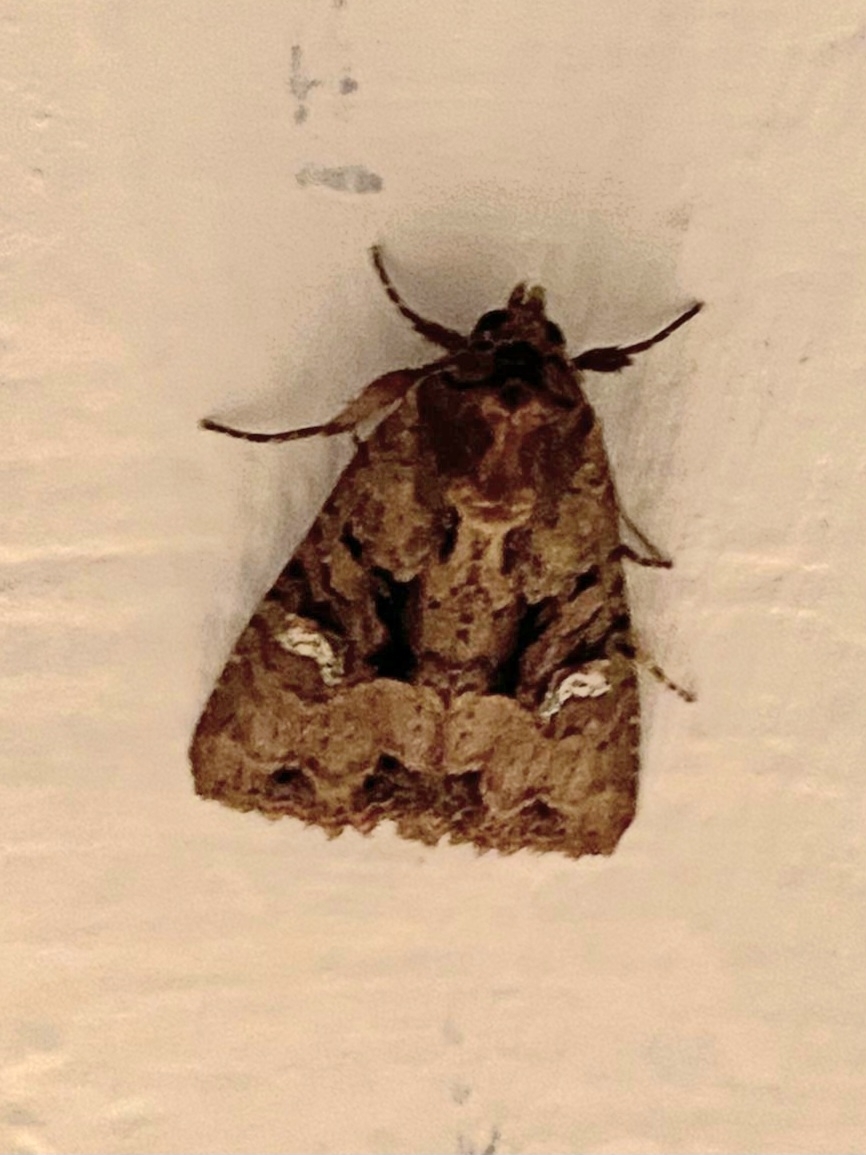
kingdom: Animalia
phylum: Arthropoda
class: Insecta
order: Lepidoptera
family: Noctuidae
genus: Mesapamea
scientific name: Mesapamea secalis
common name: Common rustic
